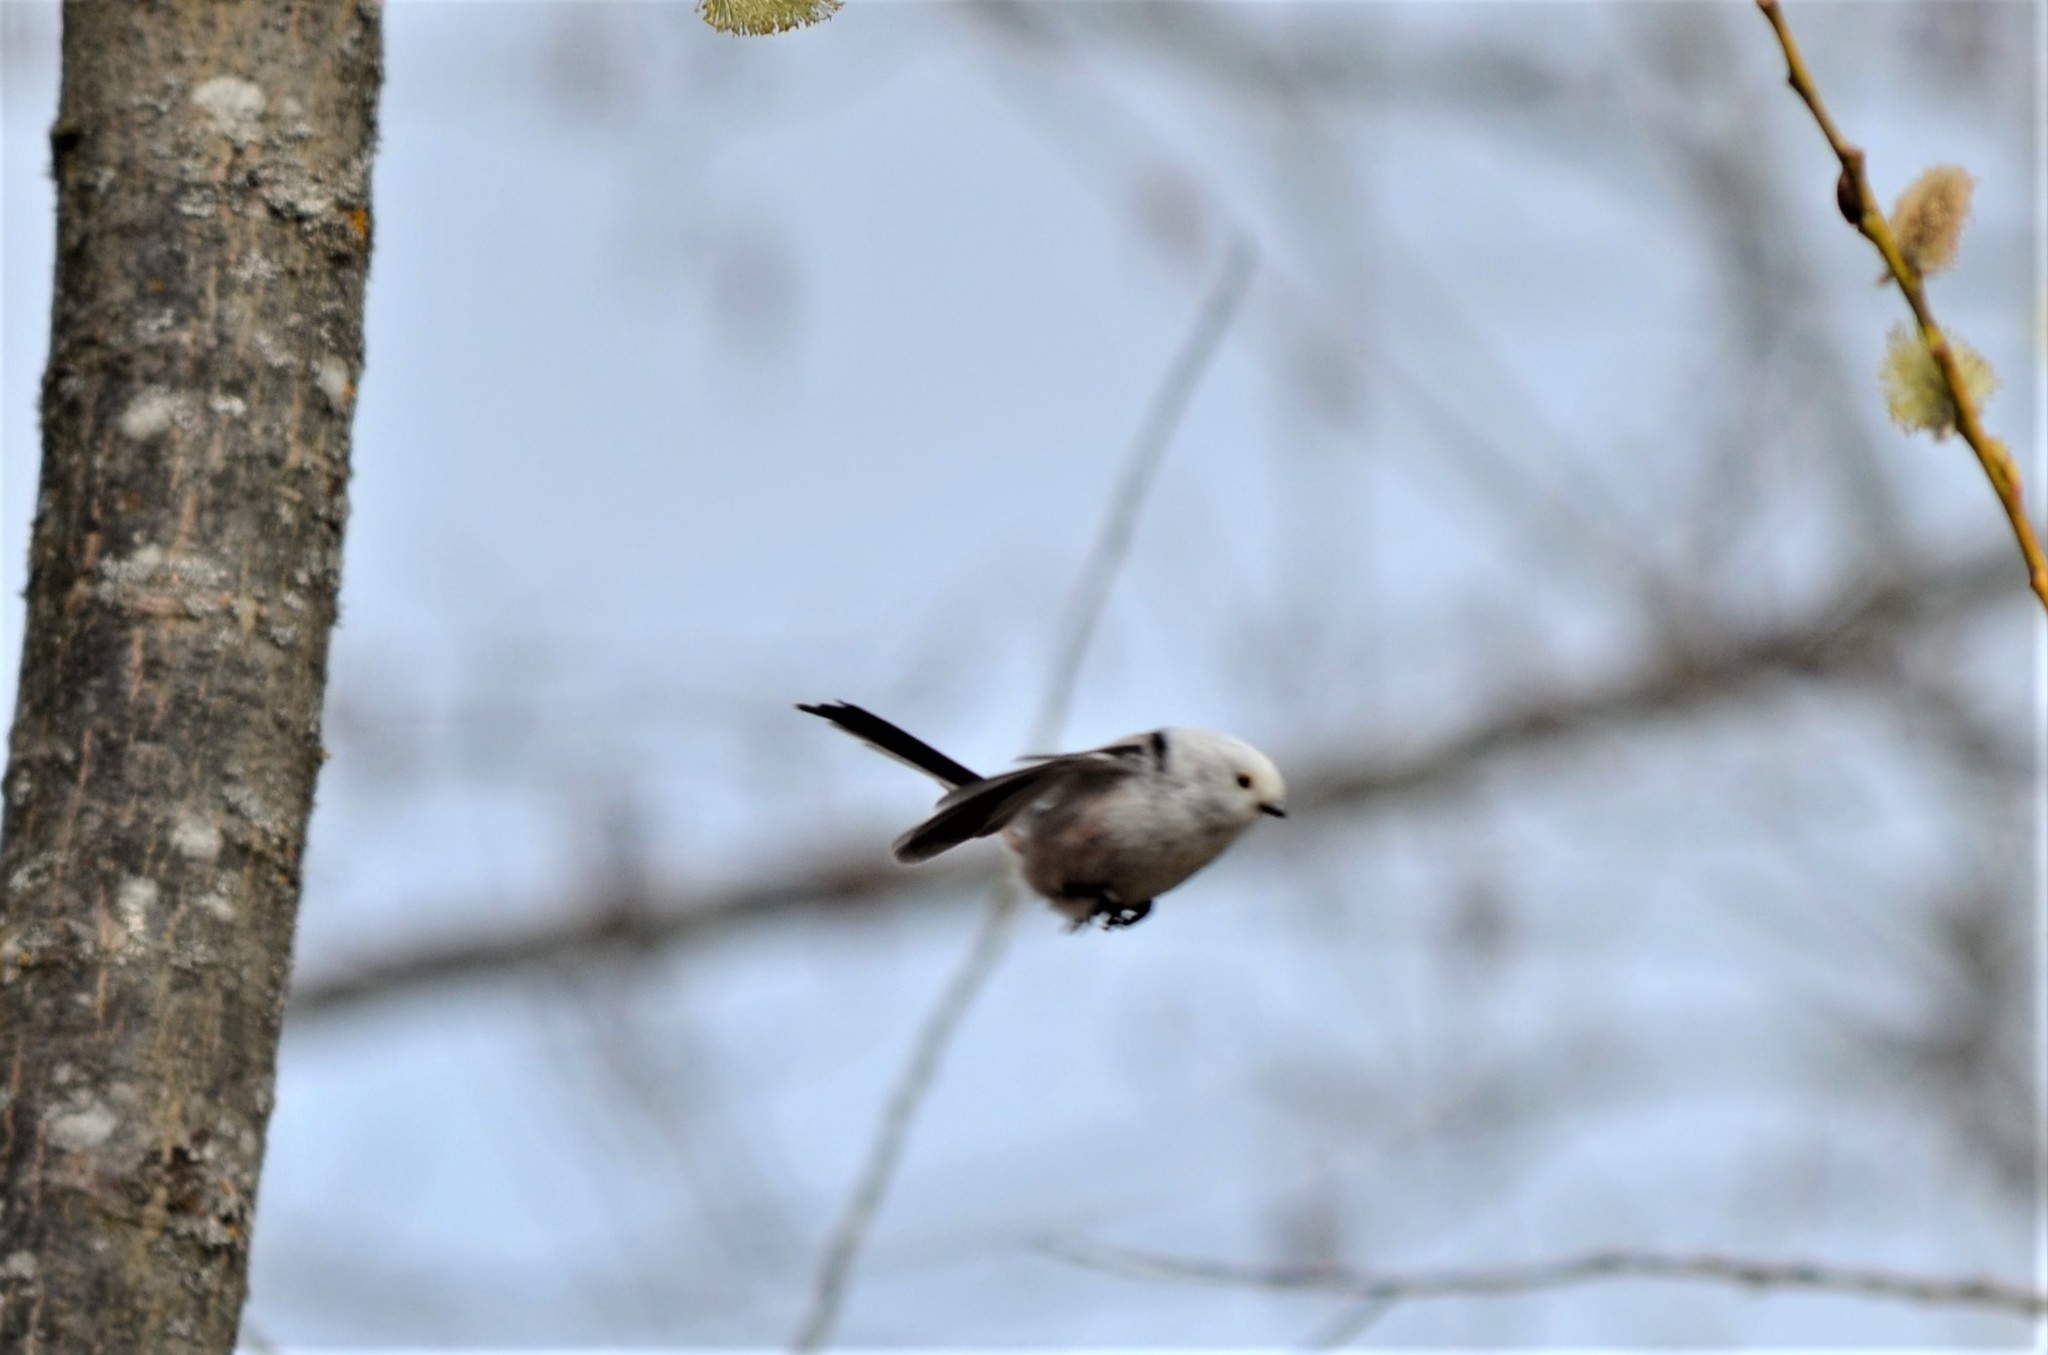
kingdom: Animalia
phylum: Chordata
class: Aves
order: Passeriformes
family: Aegithalidae
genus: Aegithalos
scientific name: Aegithalos caudatus
